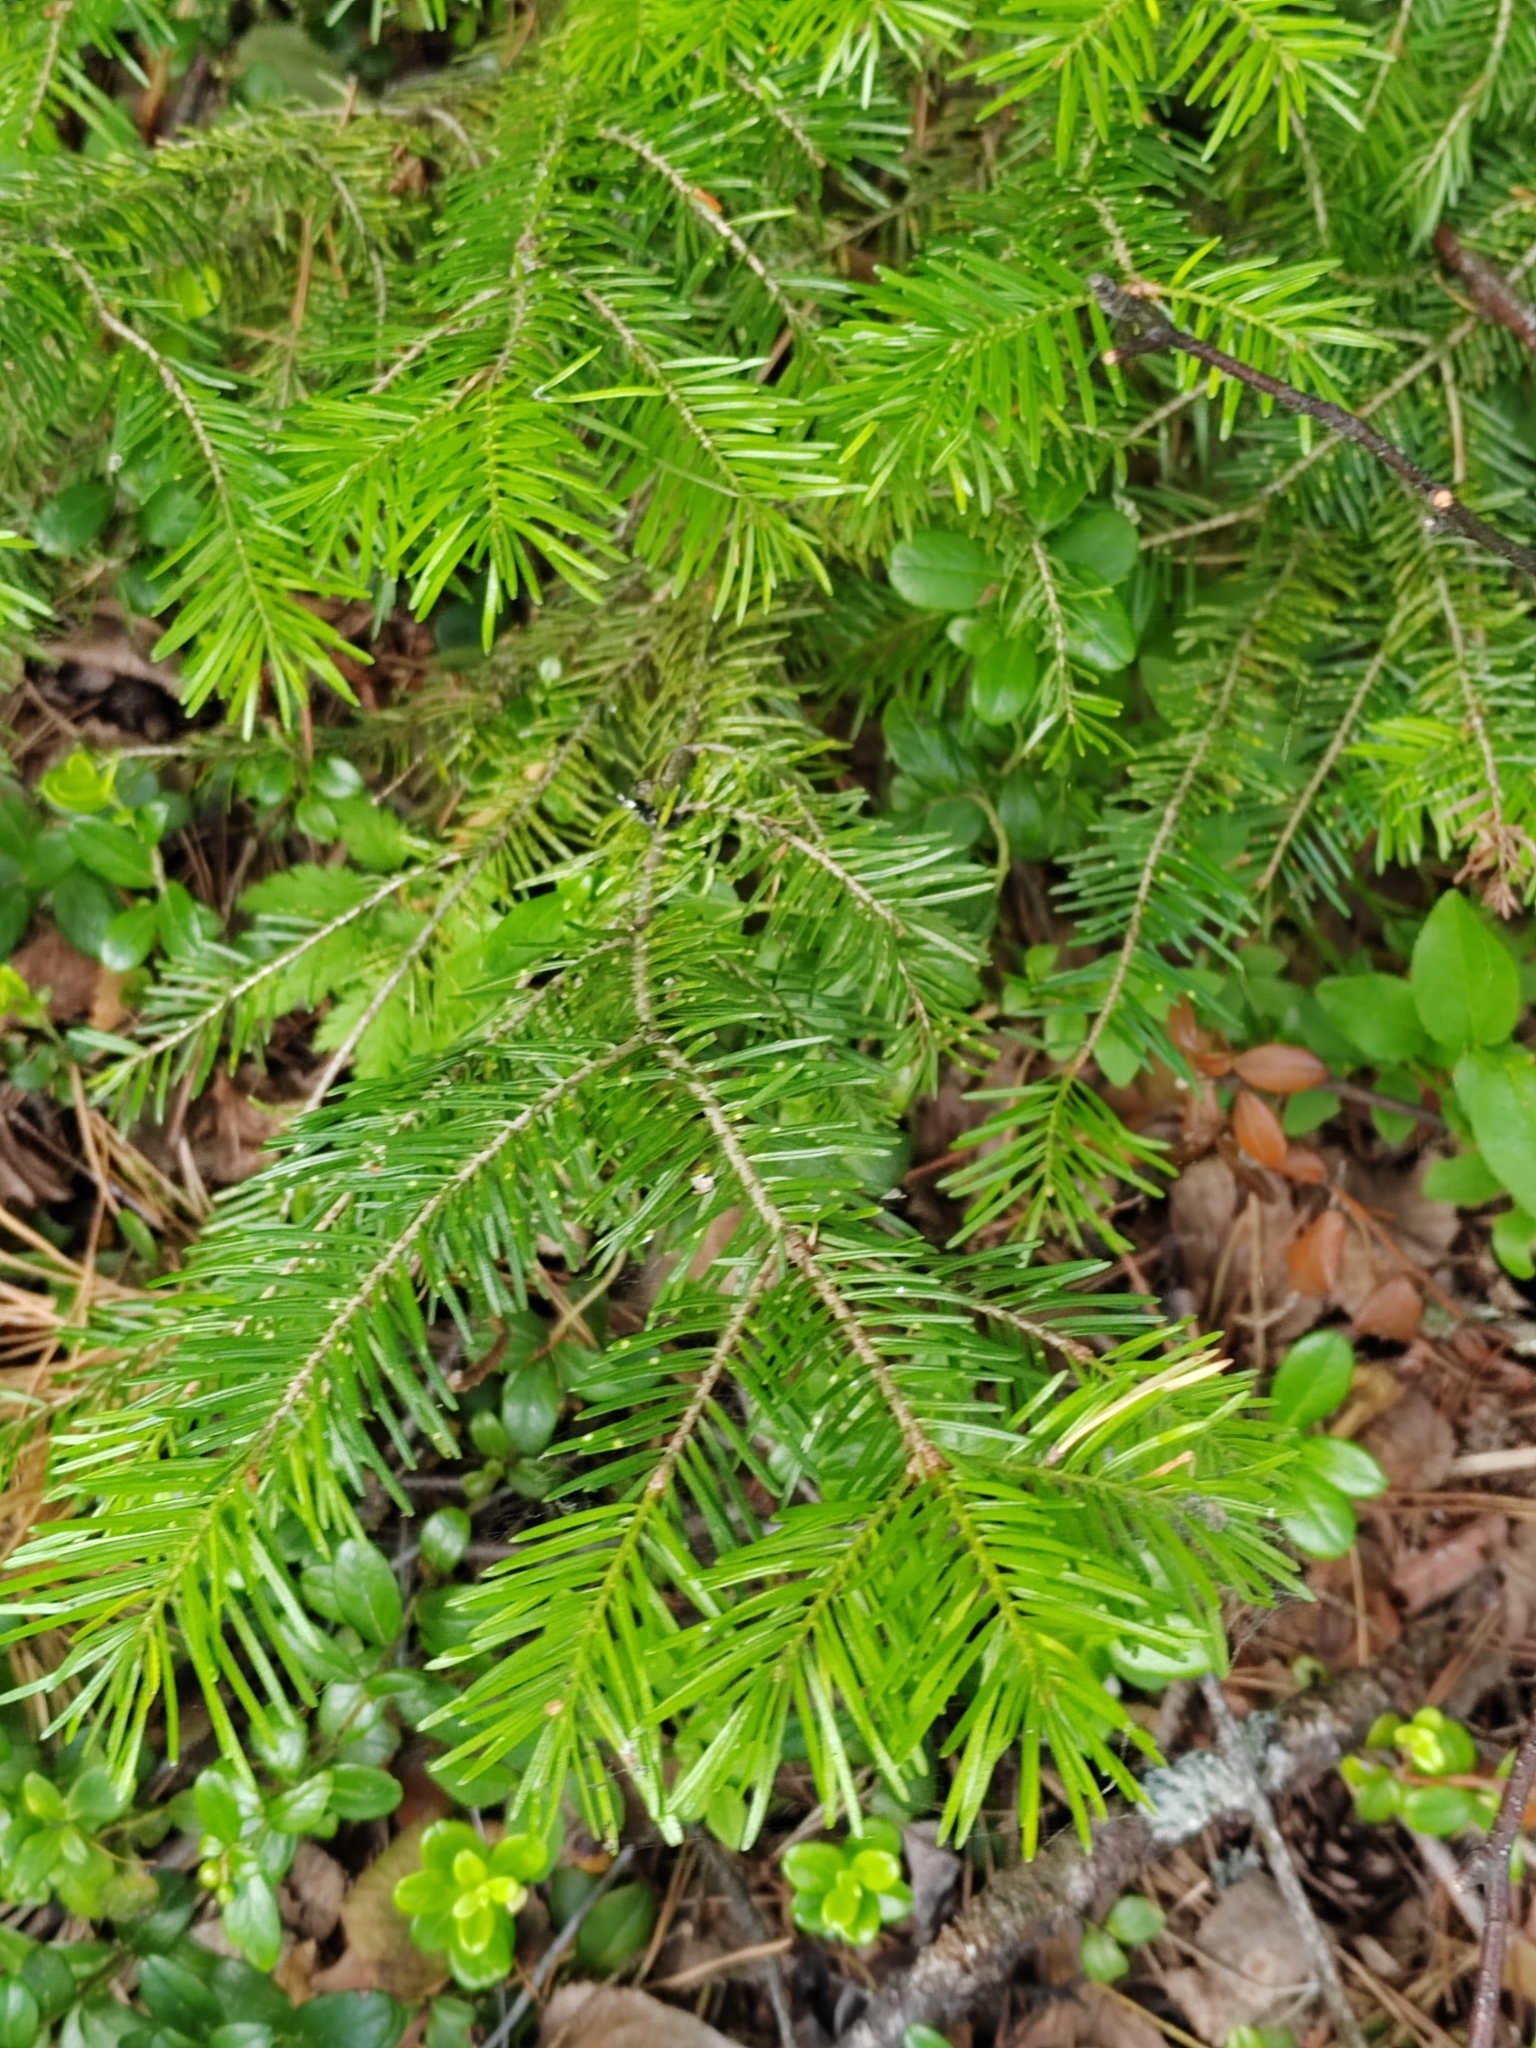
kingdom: Plantae
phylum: Tracheophyta
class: Pinopsida
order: Pinales
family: Pinaceae
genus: Abies
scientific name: Abies sibirica
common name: Siberian fir
